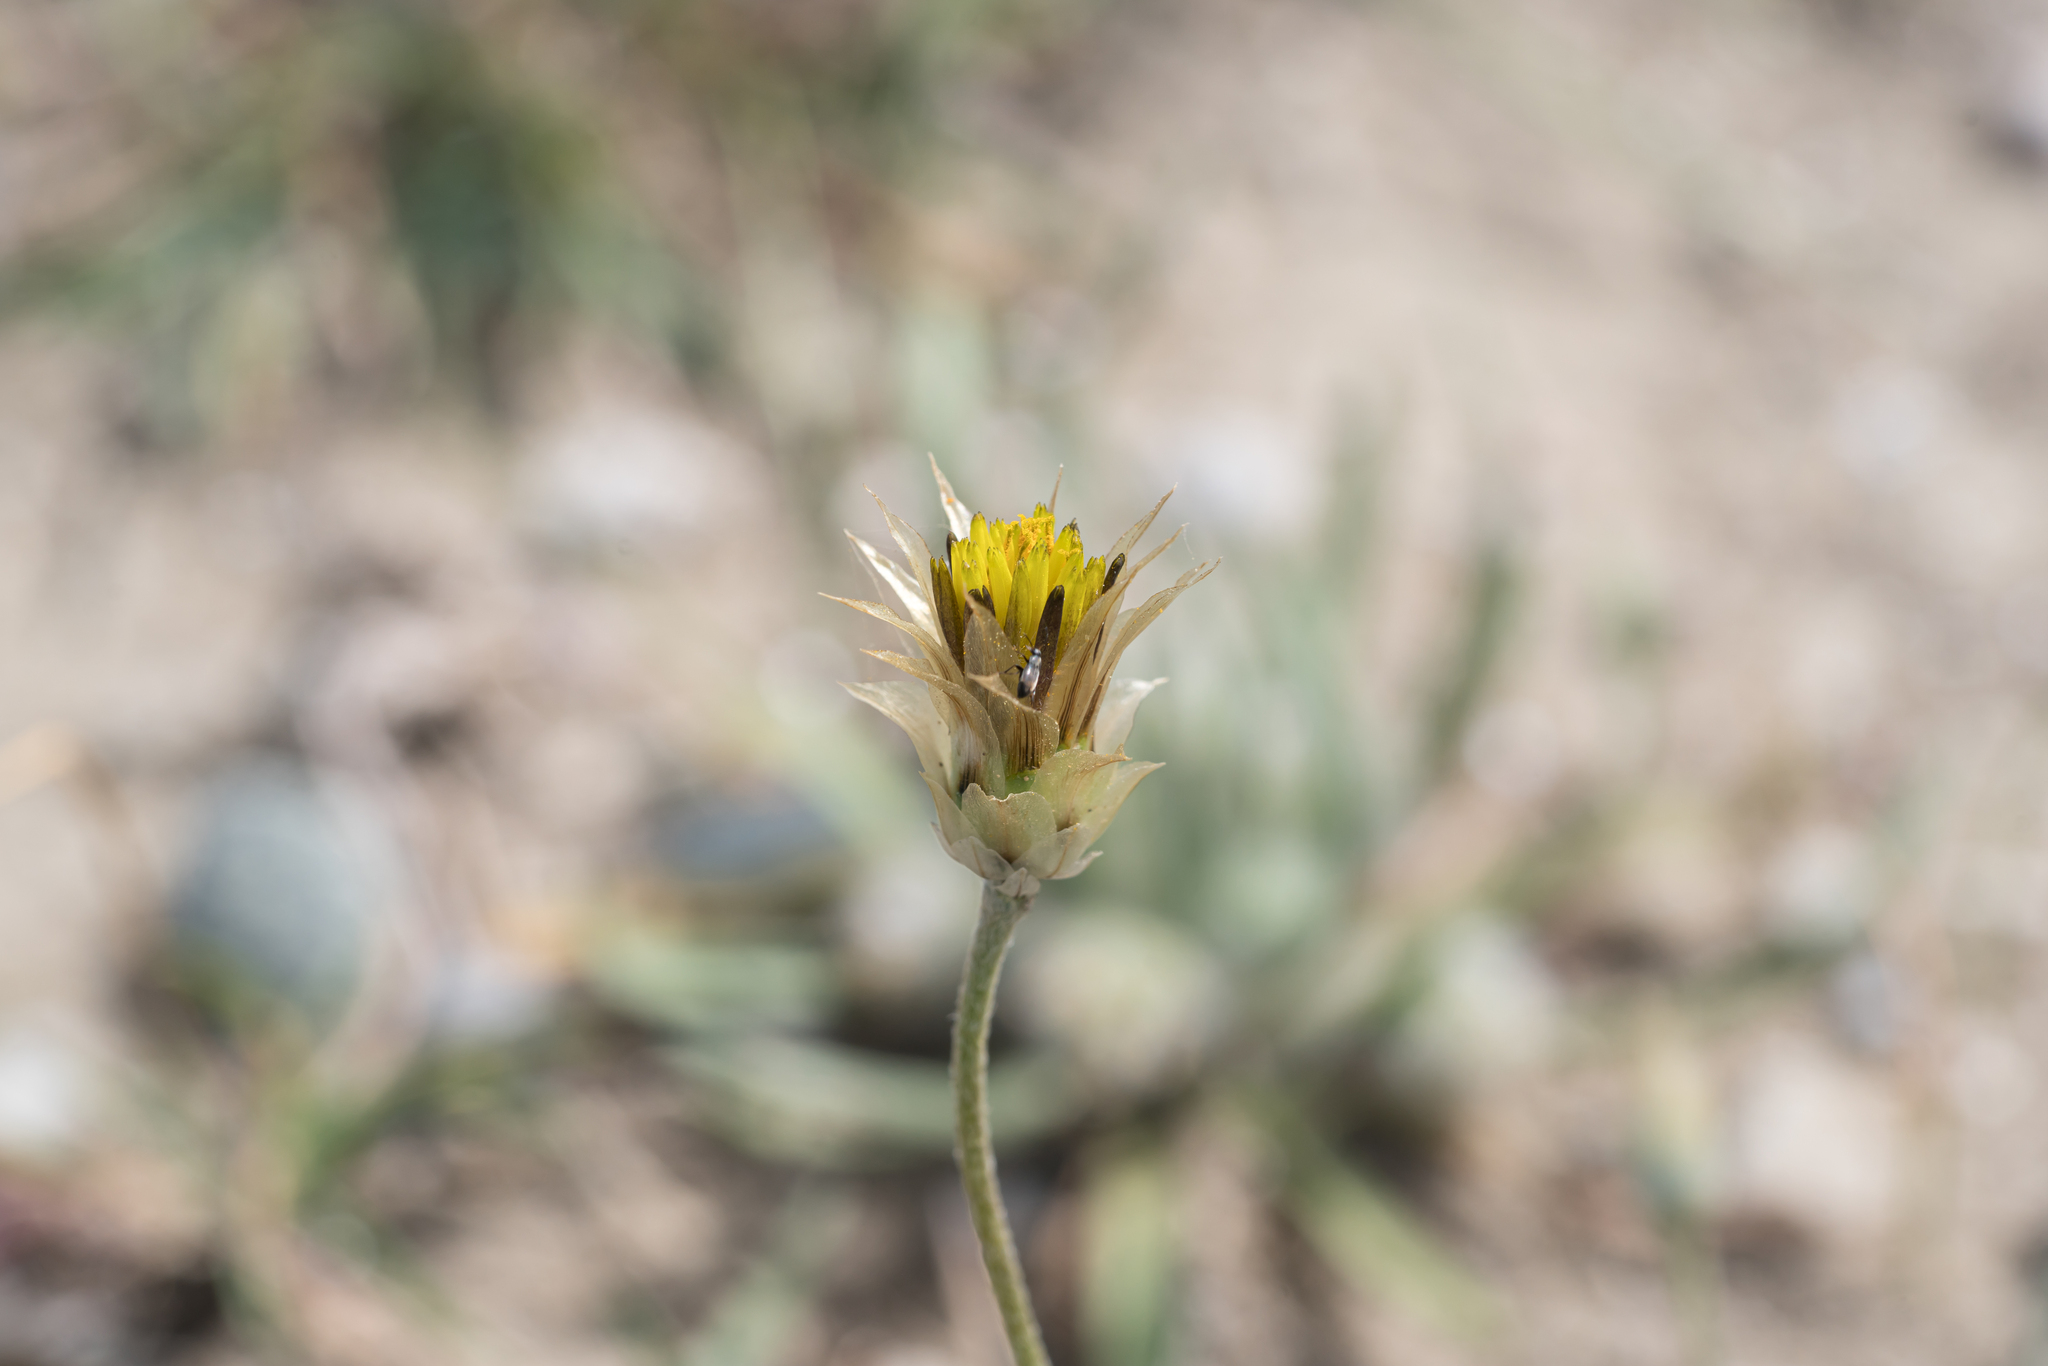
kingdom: Plantae
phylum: Tracheophyta
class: Magnoliopsida
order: Asterales
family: Asteraceae
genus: Catananche
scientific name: Catananche lutea
